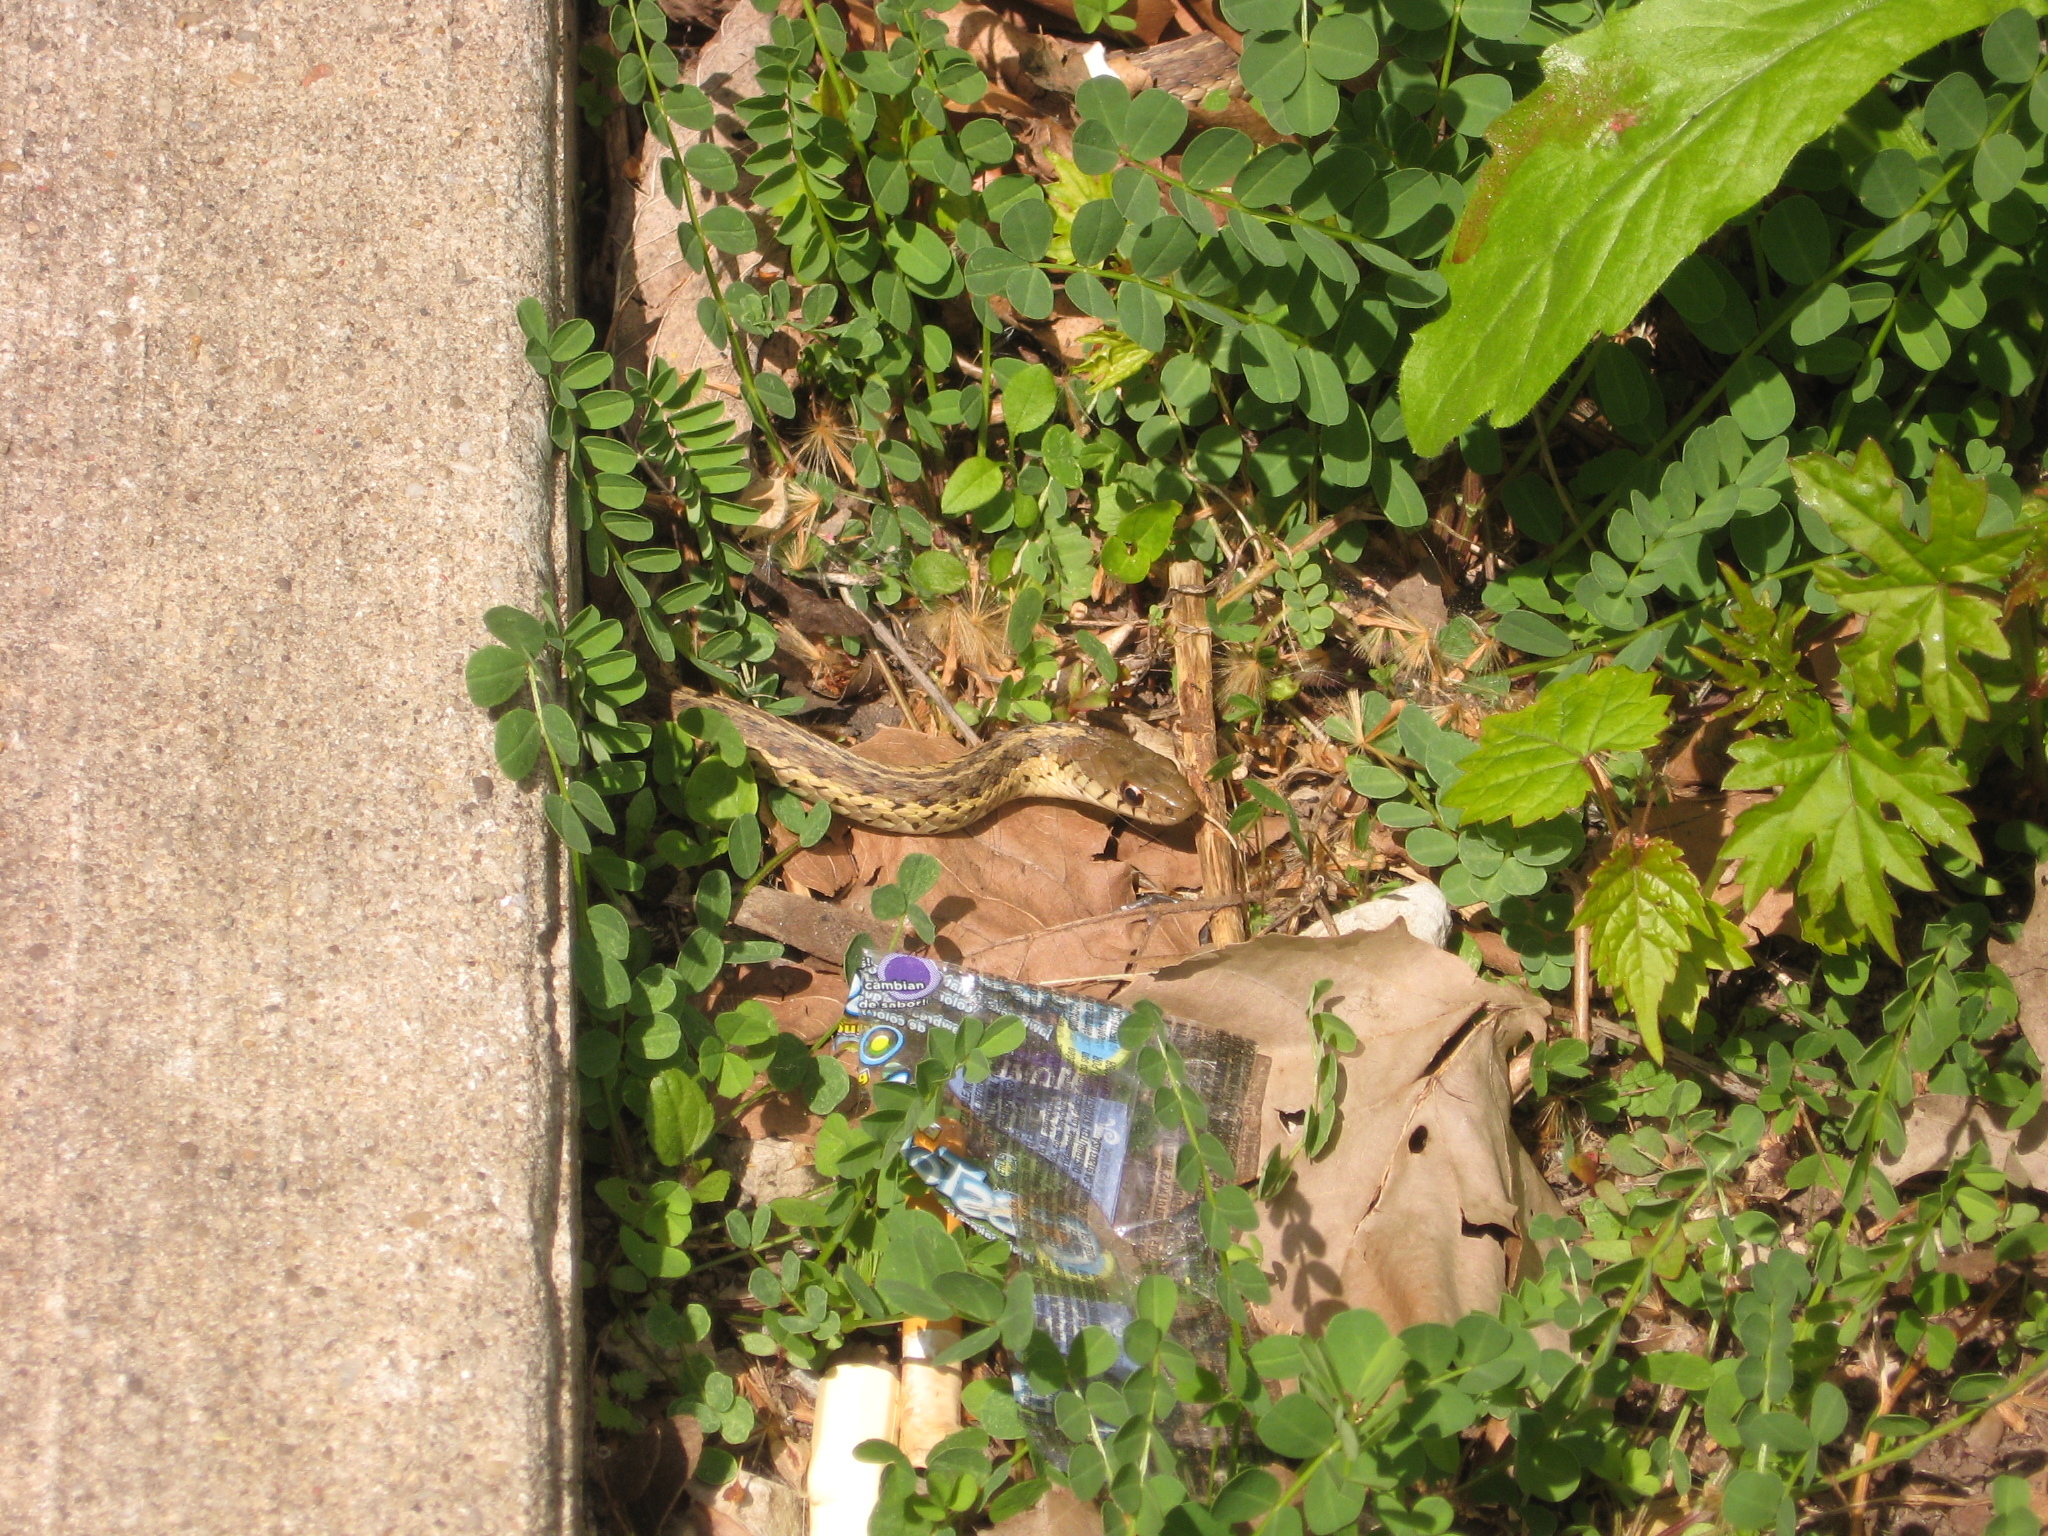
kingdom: Animalia
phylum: Chordata
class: Squamata
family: Colubridae
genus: Thamnophis
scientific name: Thamnophis sirtalis
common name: Common garter snake
